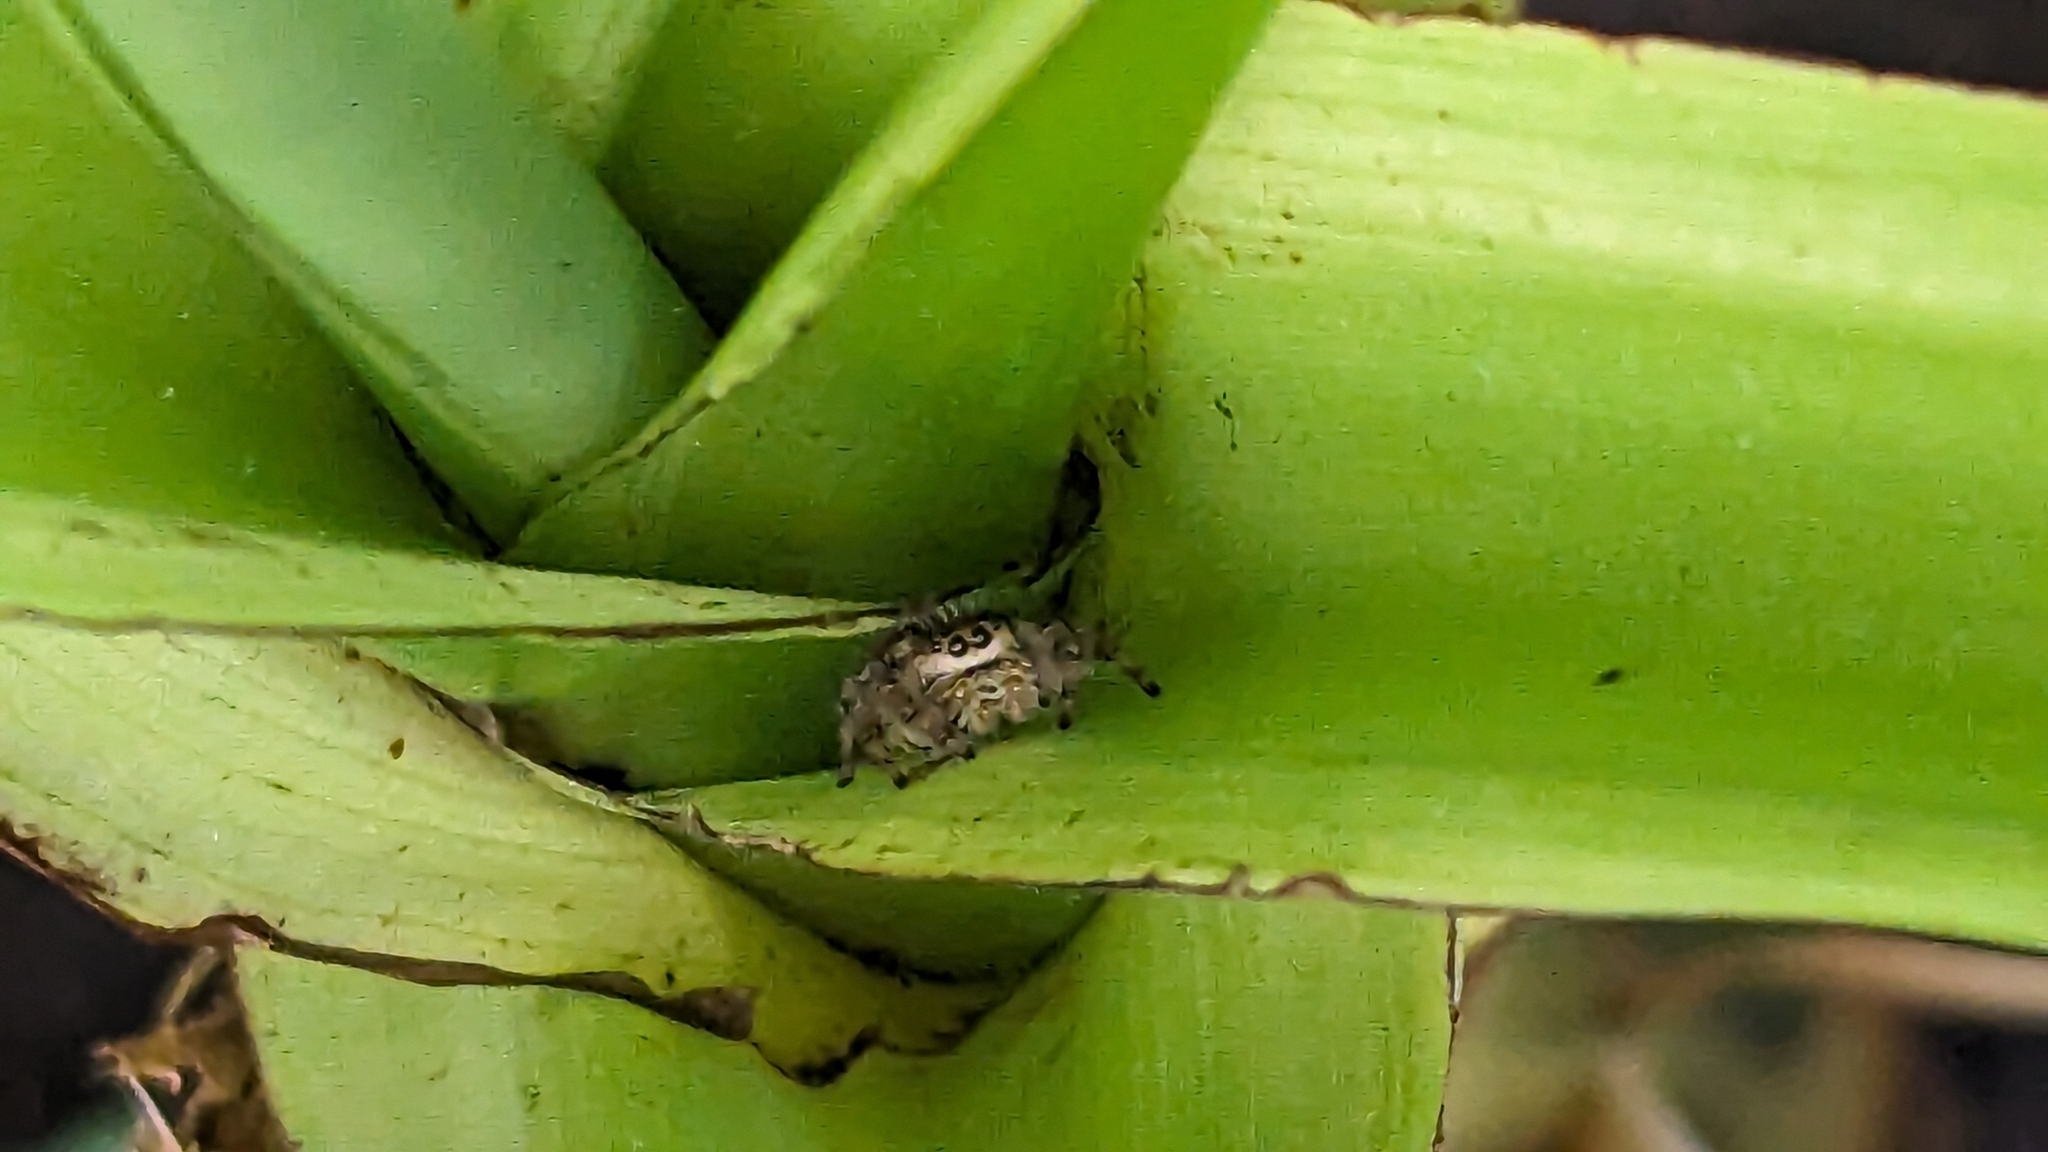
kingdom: Animalia
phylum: Arthropoda
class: Arachnida
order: Araneae
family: Salticidae
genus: Phidippus
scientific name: Phidippus clarus
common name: Brilliant jumping spider
